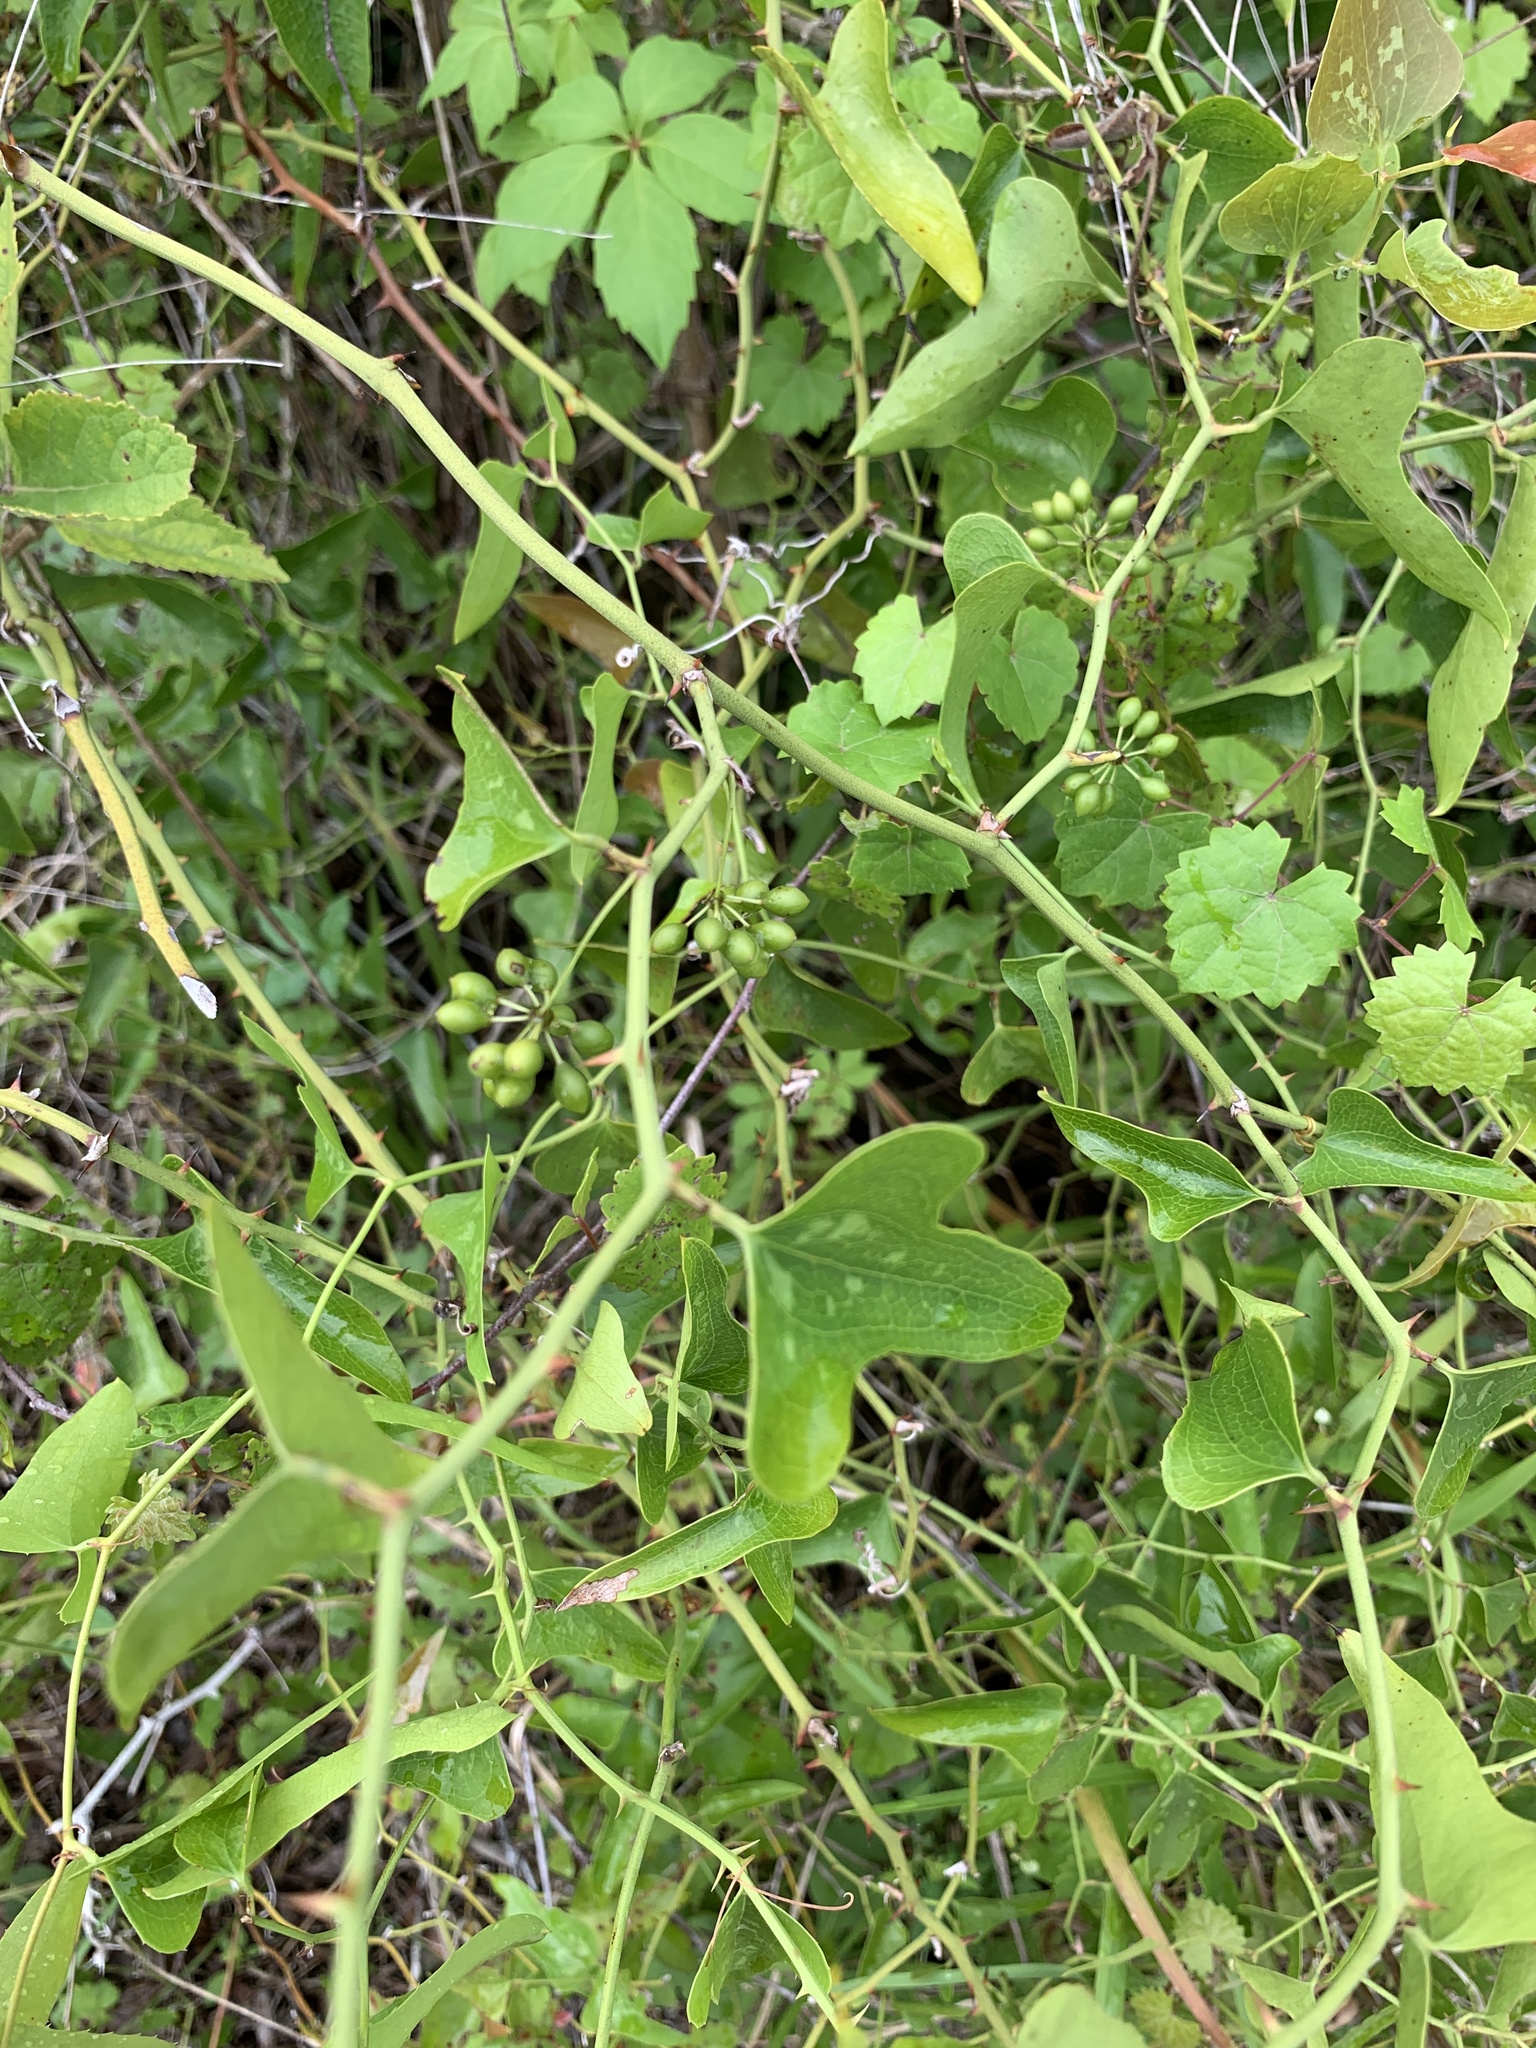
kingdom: Plantae
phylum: Tracheophyta
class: Liliopsida
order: Liliales
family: Smilacaceae
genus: Smilax
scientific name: Smilax bona-nox
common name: Catbrier
